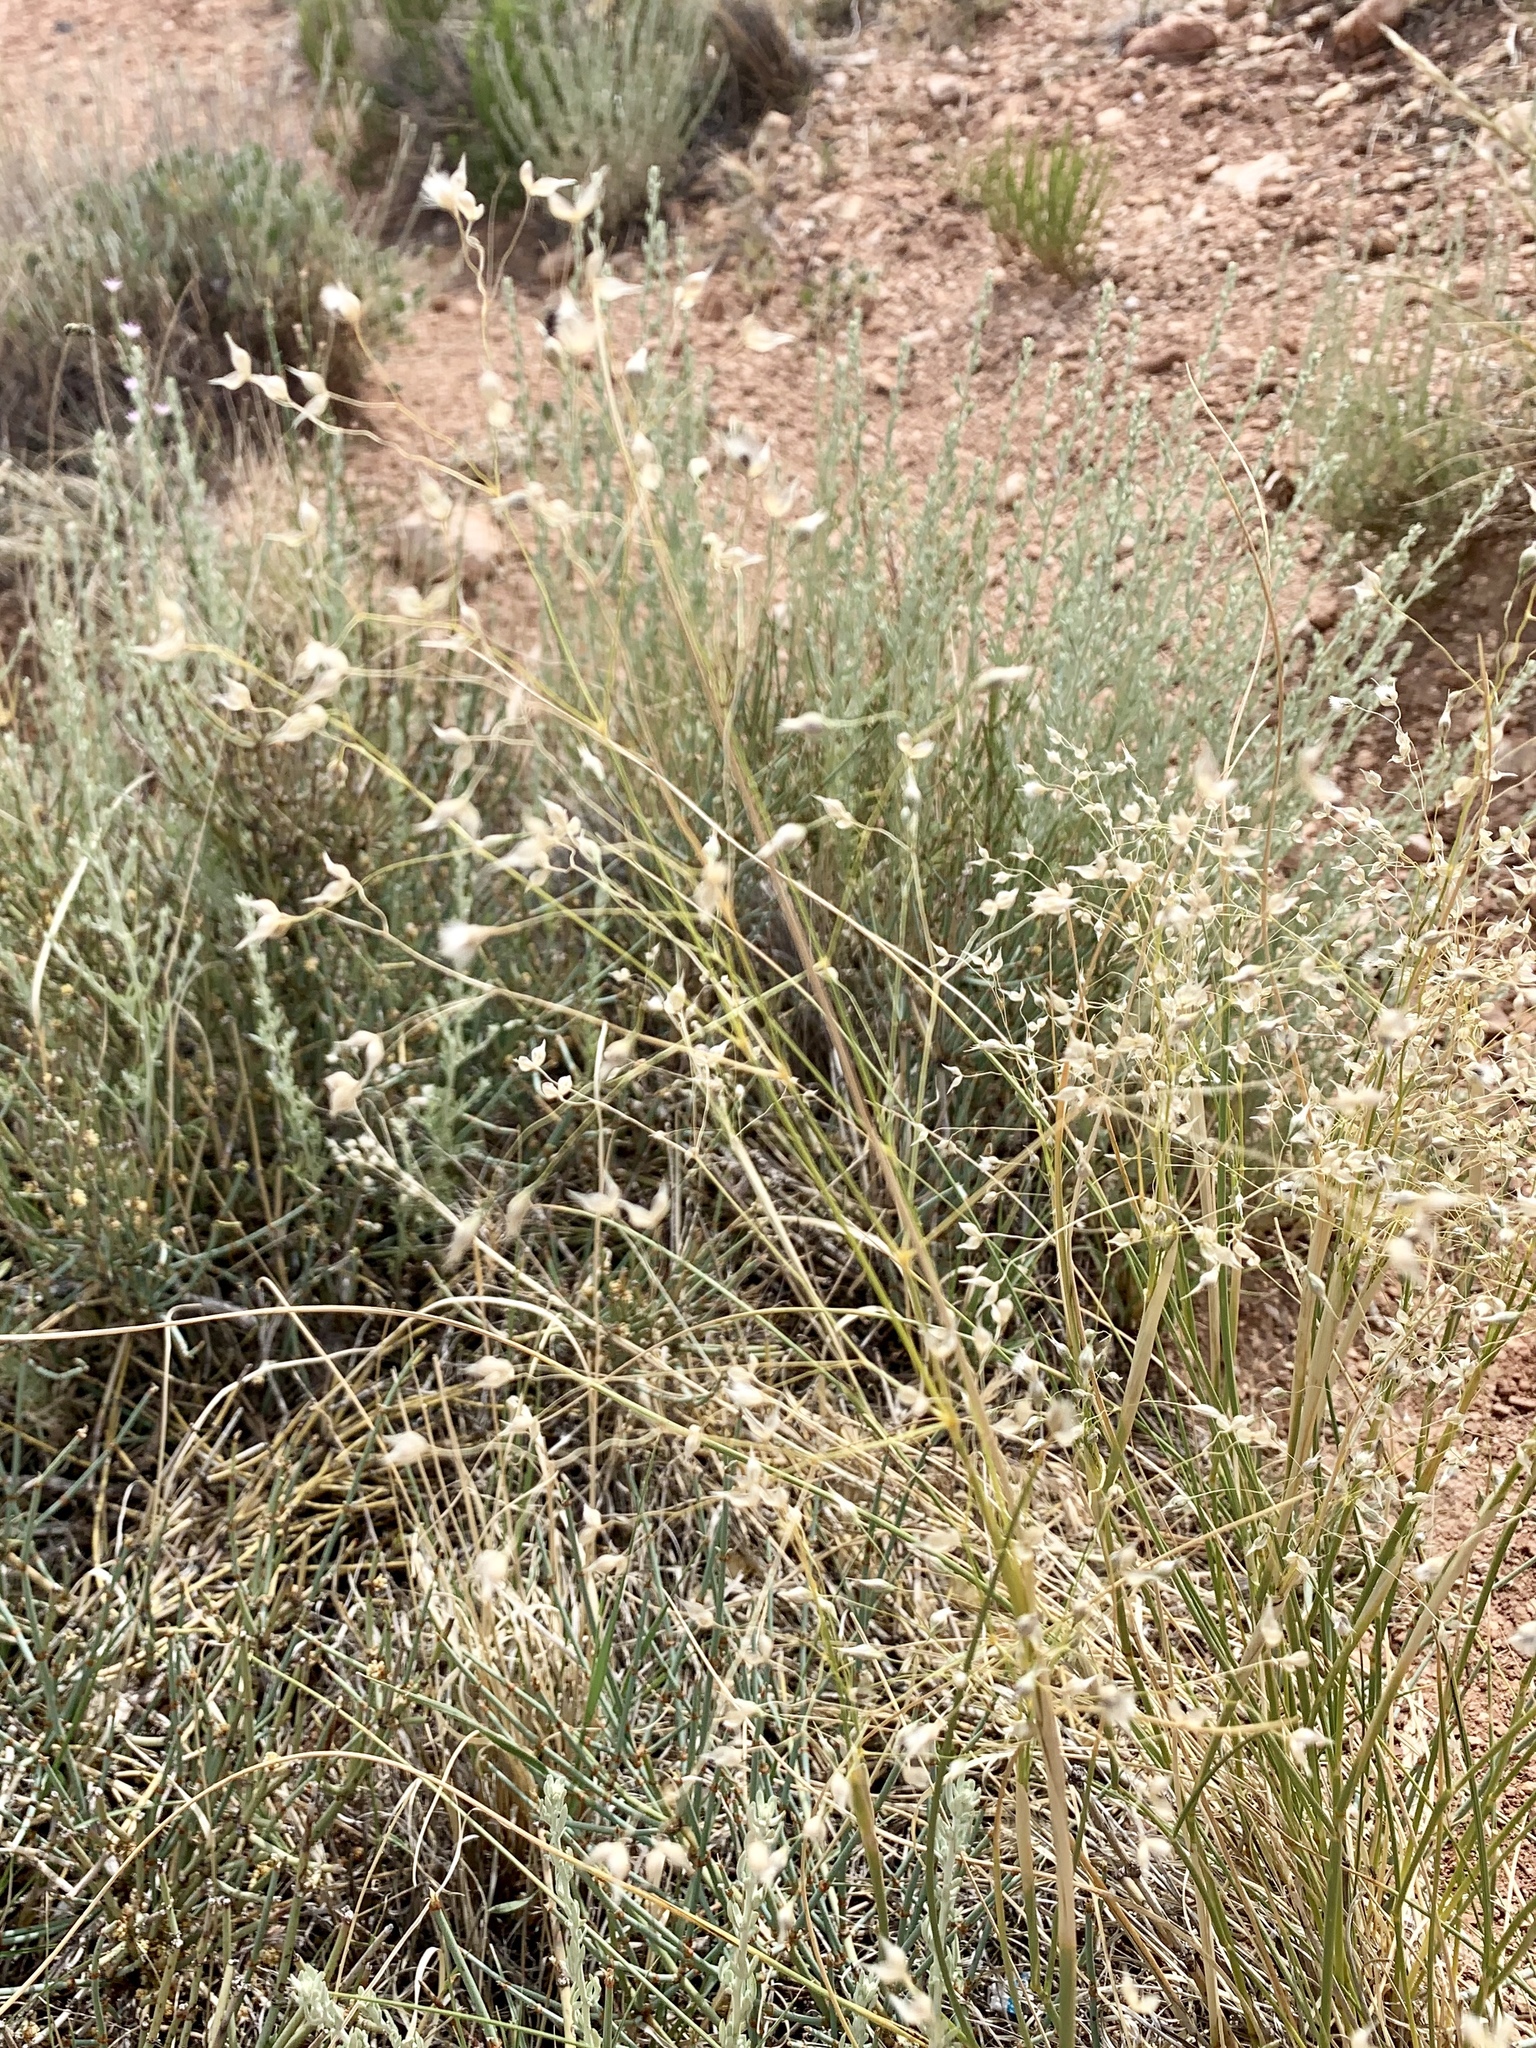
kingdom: Plantae
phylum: Tracheophyta
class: Liliopsida
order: Poales
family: Poaceae
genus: Eriocoma
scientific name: Eriocoma hymenoides
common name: Indian mountain ricegrass
